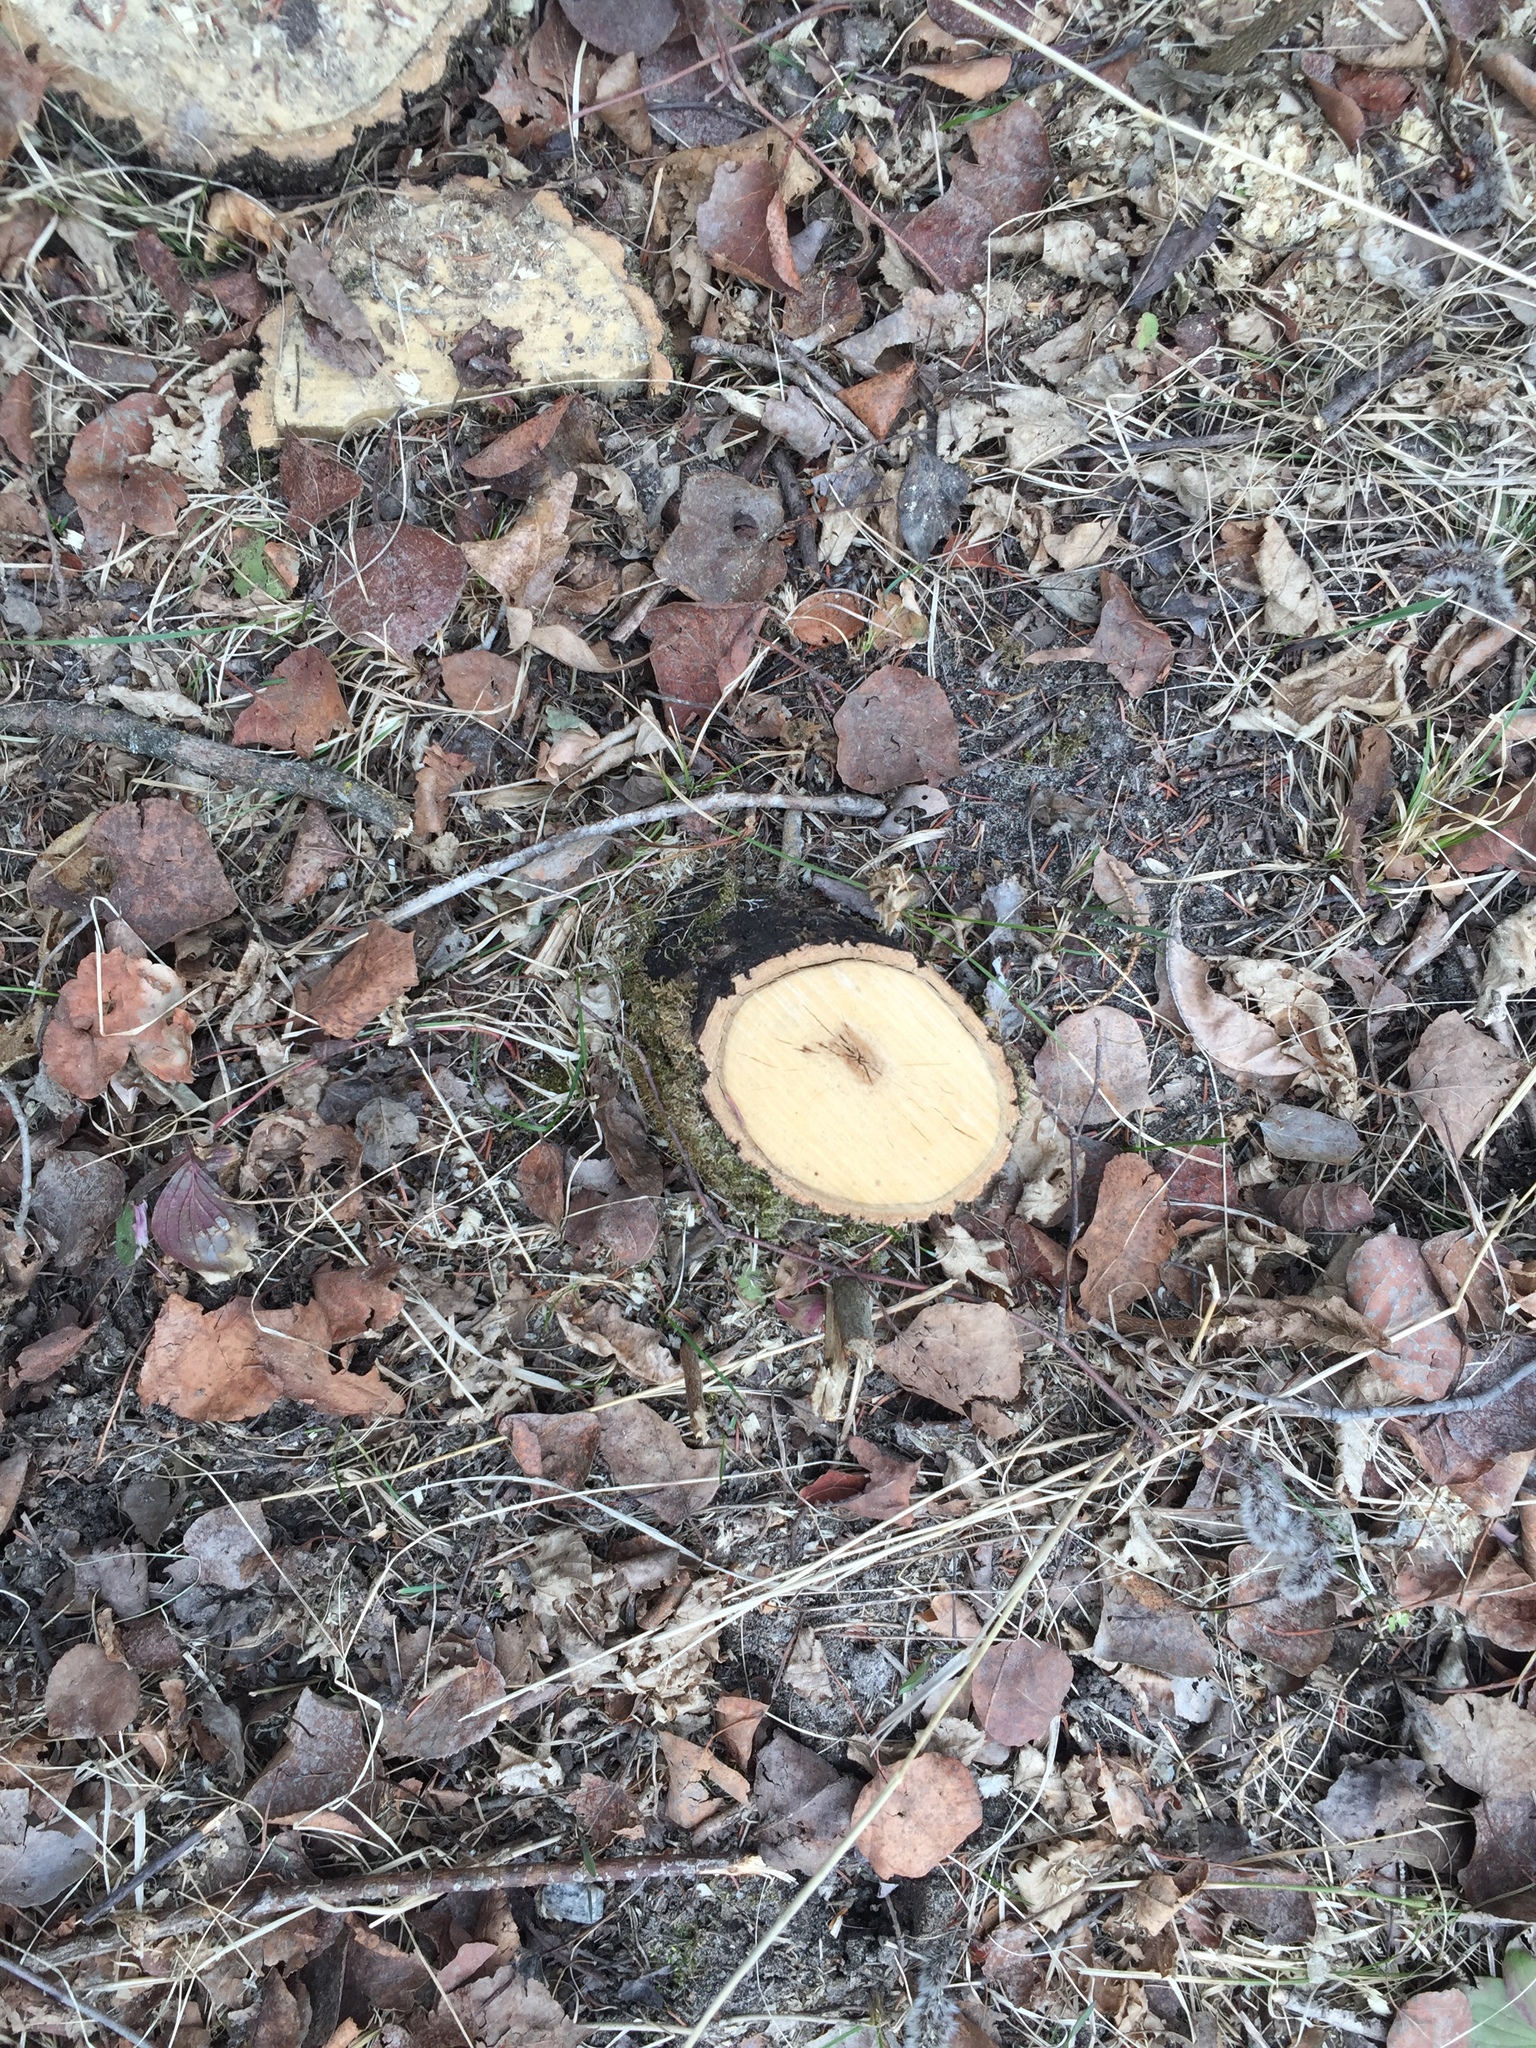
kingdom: Plantae
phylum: Tracheophyta
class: Magnoliopsida
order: Fagales
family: Fagaceae
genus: Quercus
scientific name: Quercus macrocarpa
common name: Bur oak
